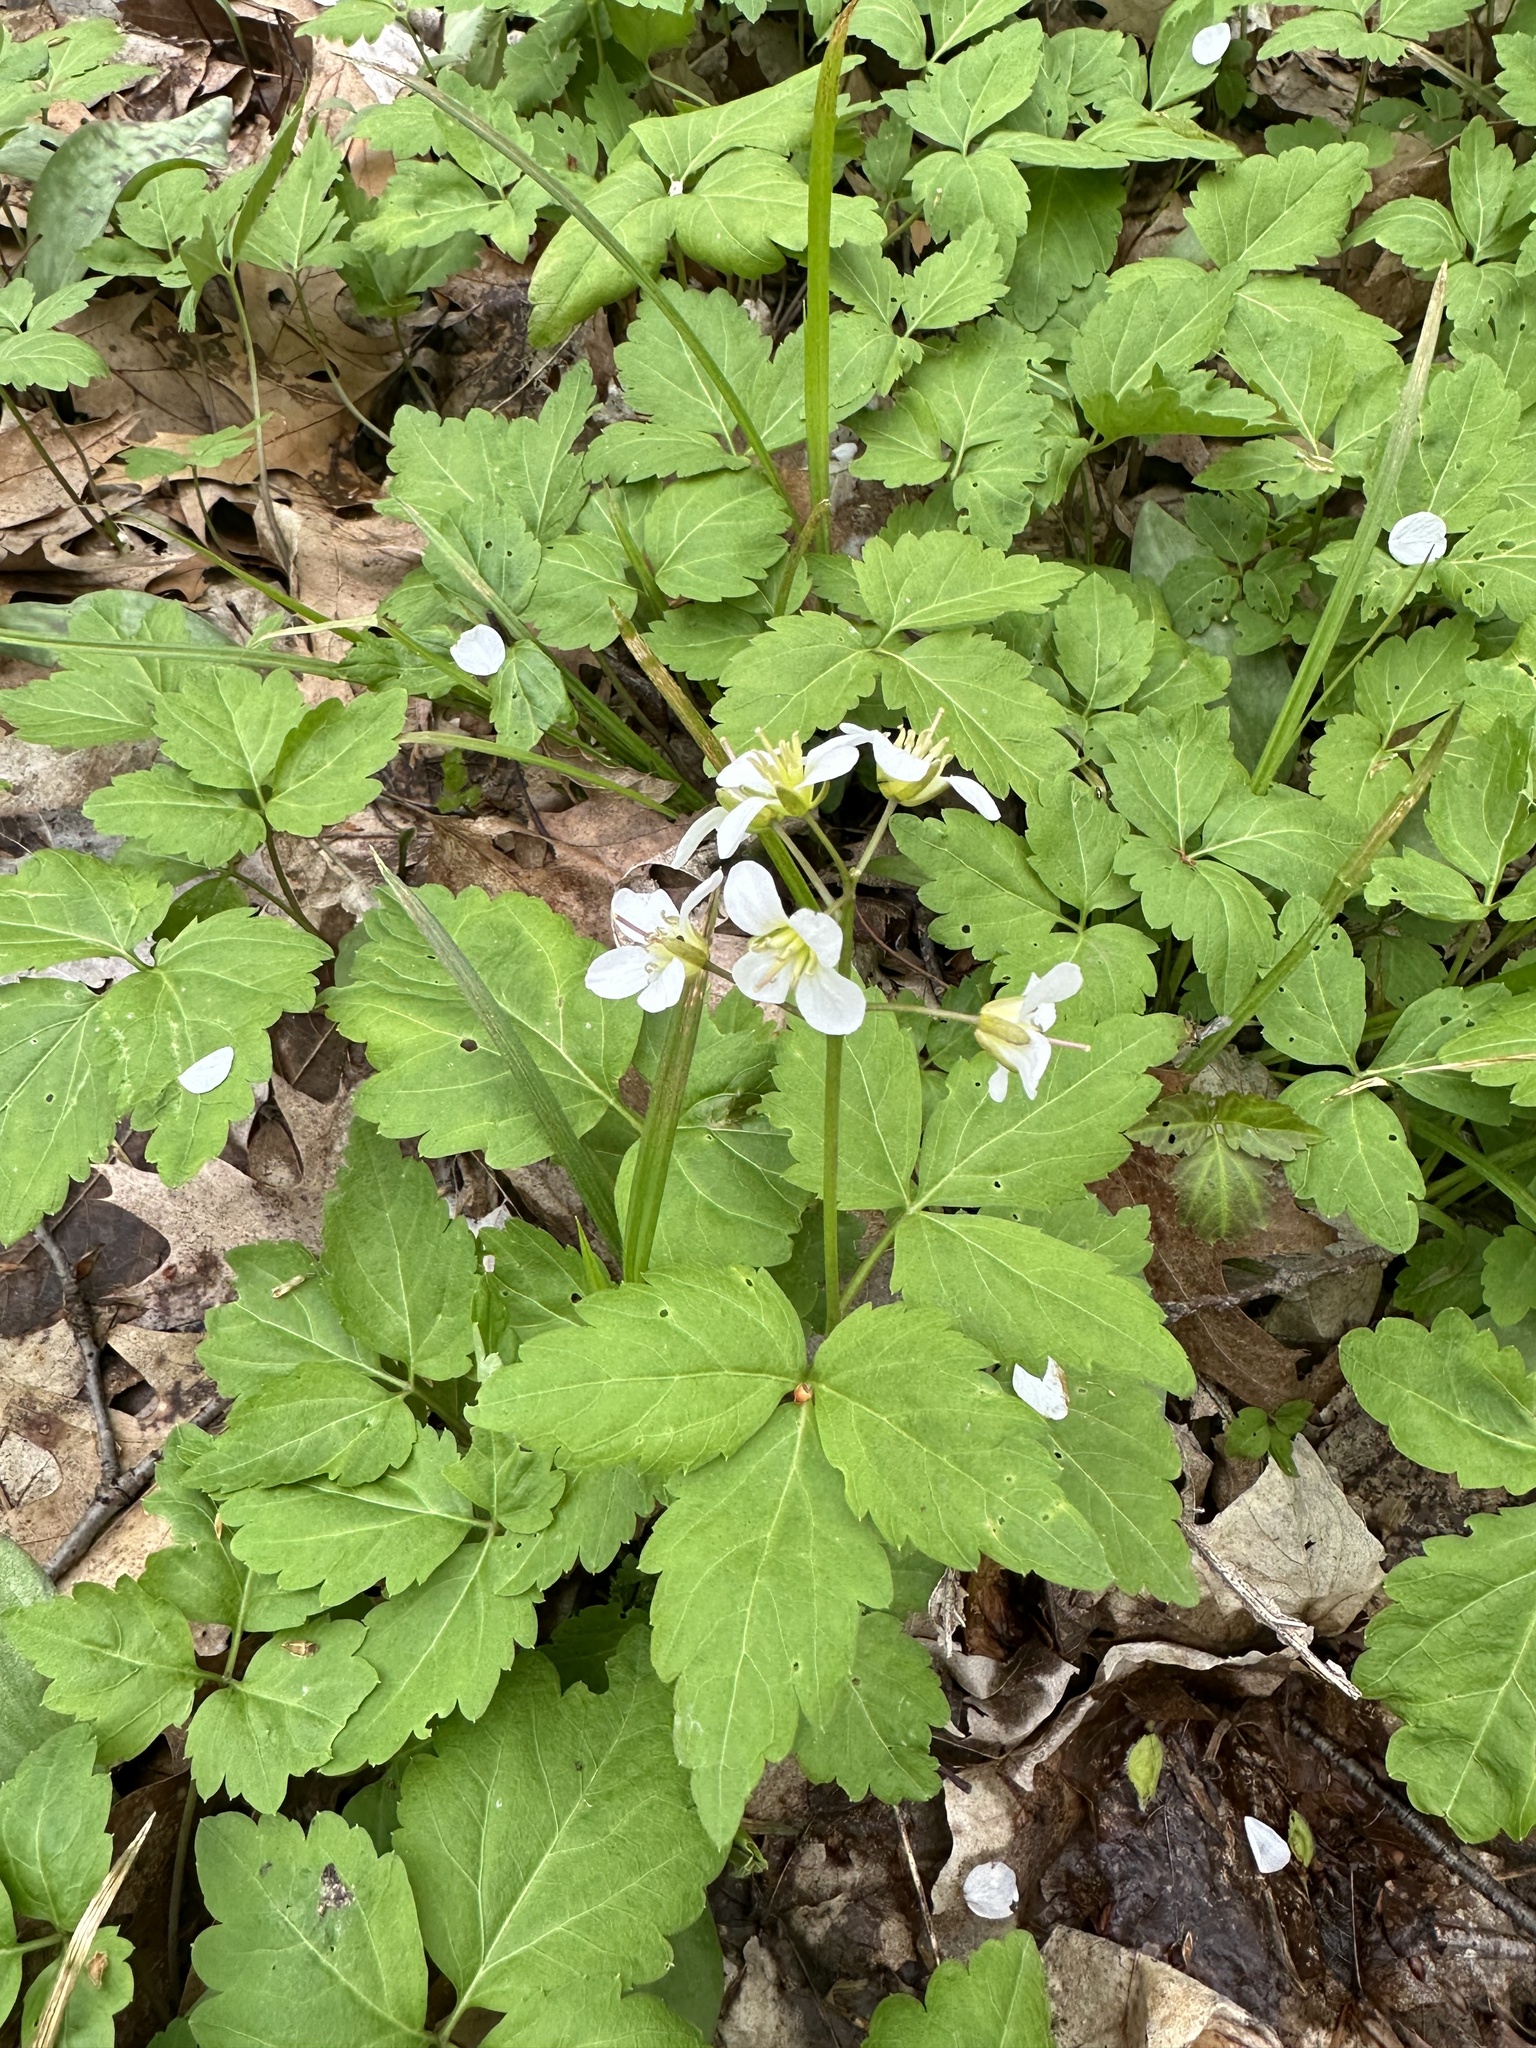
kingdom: Plantae
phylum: Tracheophyta
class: Magnoliopsida
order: Brassicales
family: Brassicaceae
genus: Cardamine
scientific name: Cardamine diphylla
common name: Broad-leaved toothwort
